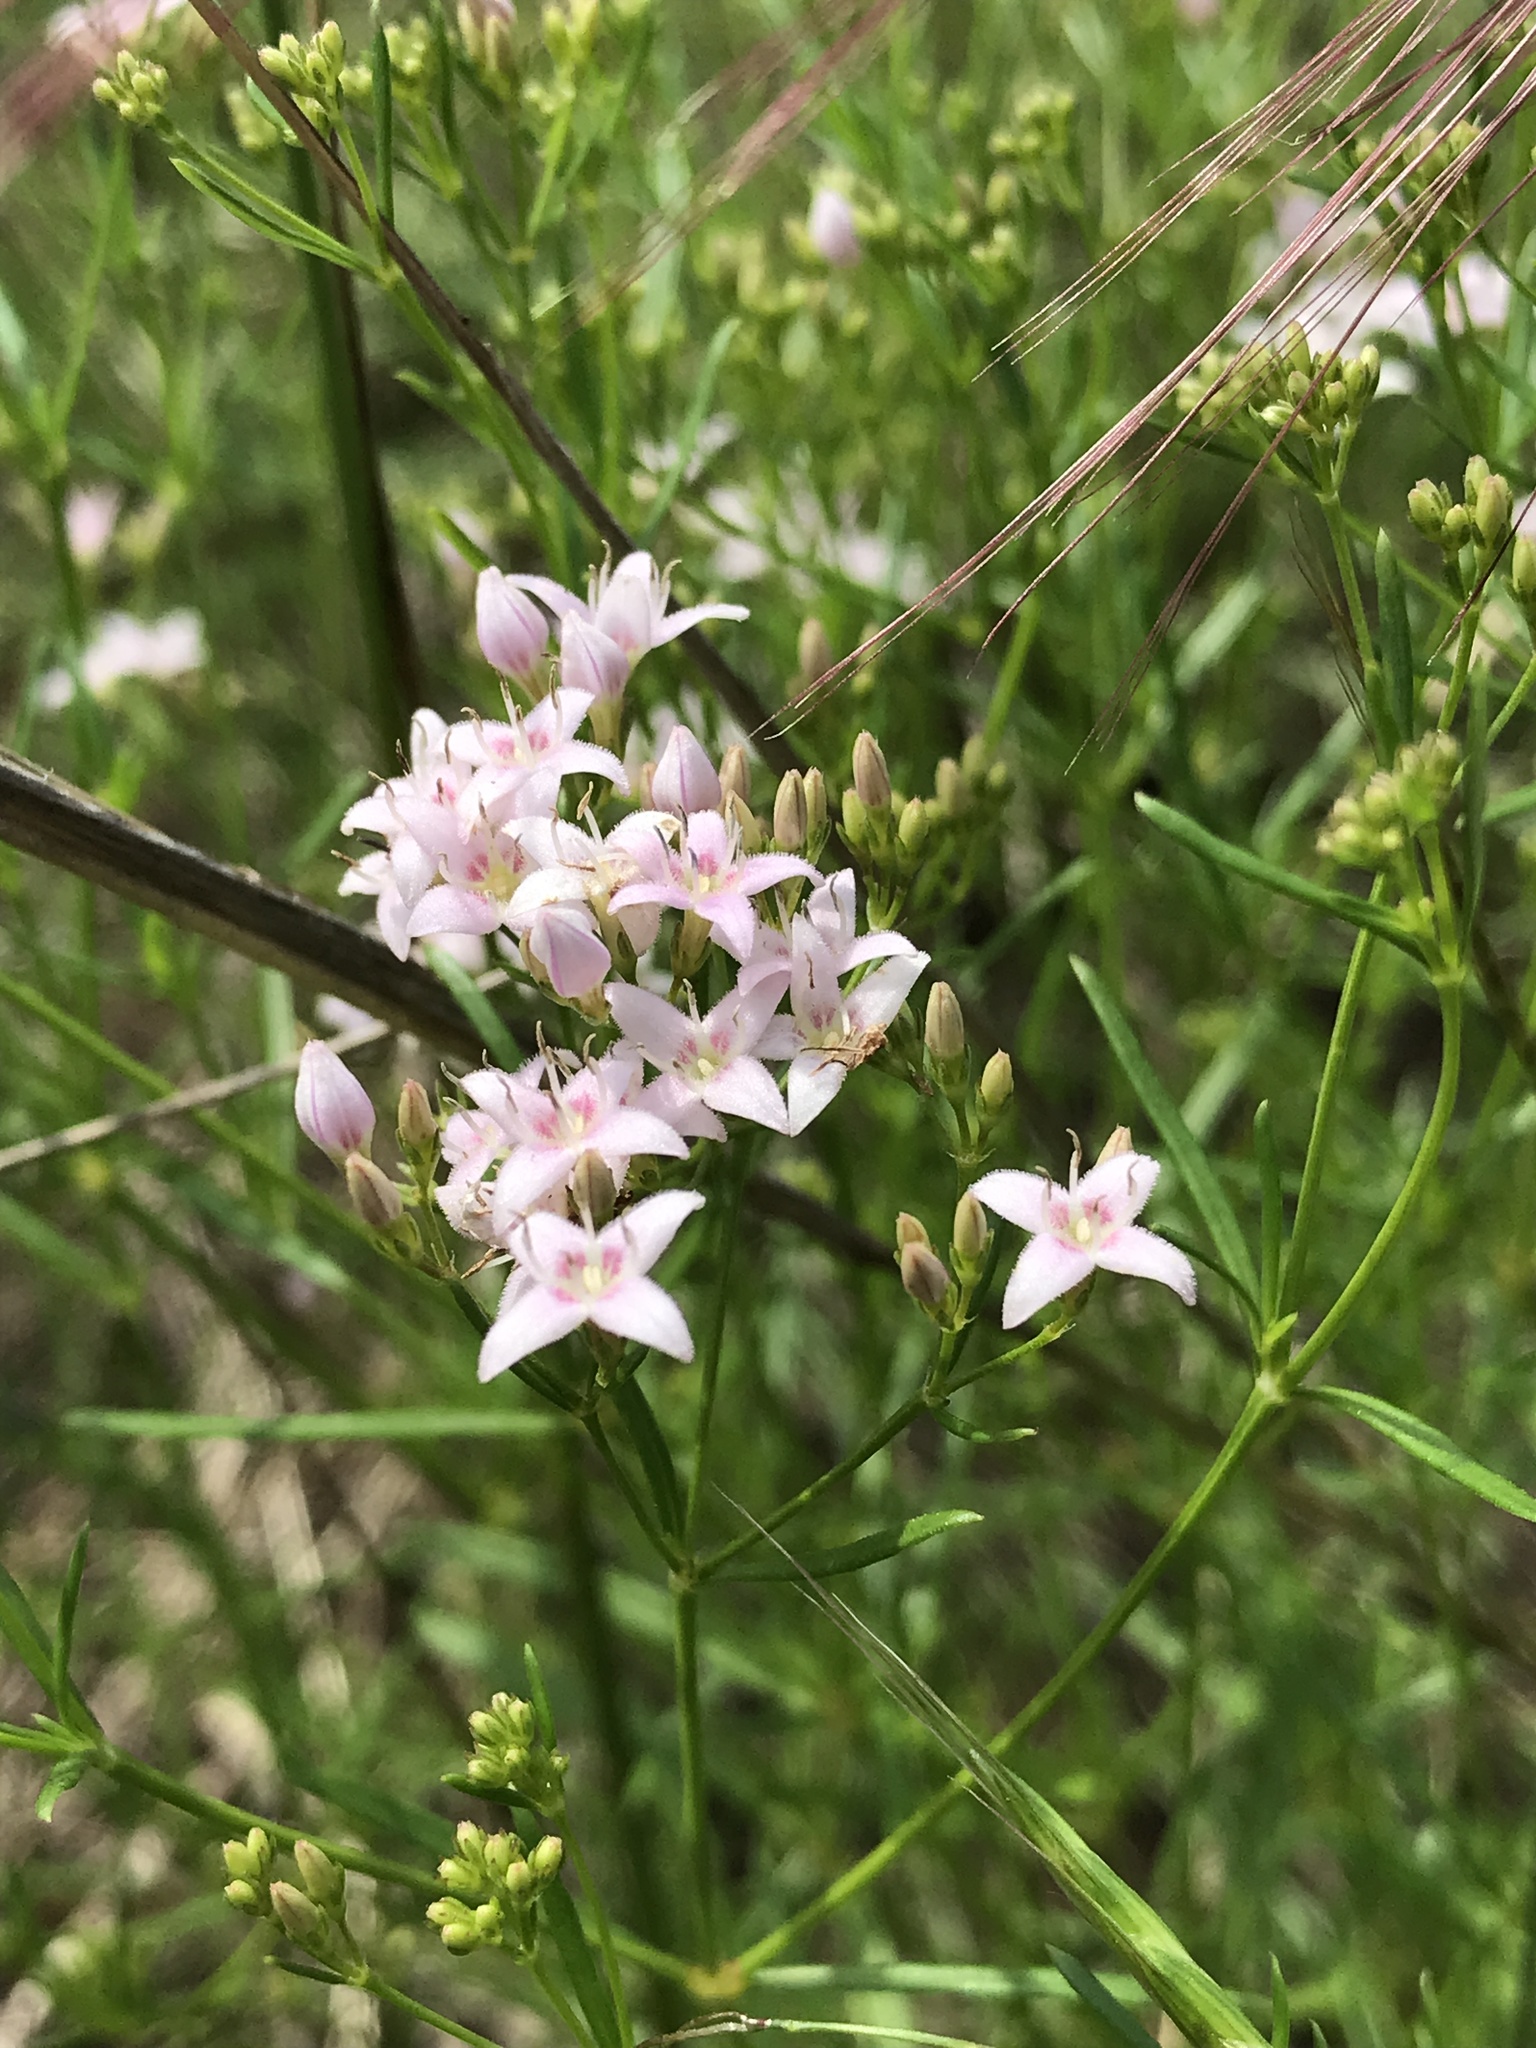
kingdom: Plantae
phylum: Tracheophyta
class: Magnoliopsida
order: Gentianales
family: Rubiaceae
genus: Stenaria
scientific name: Stenaria nigricans
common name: Diamondflowers
